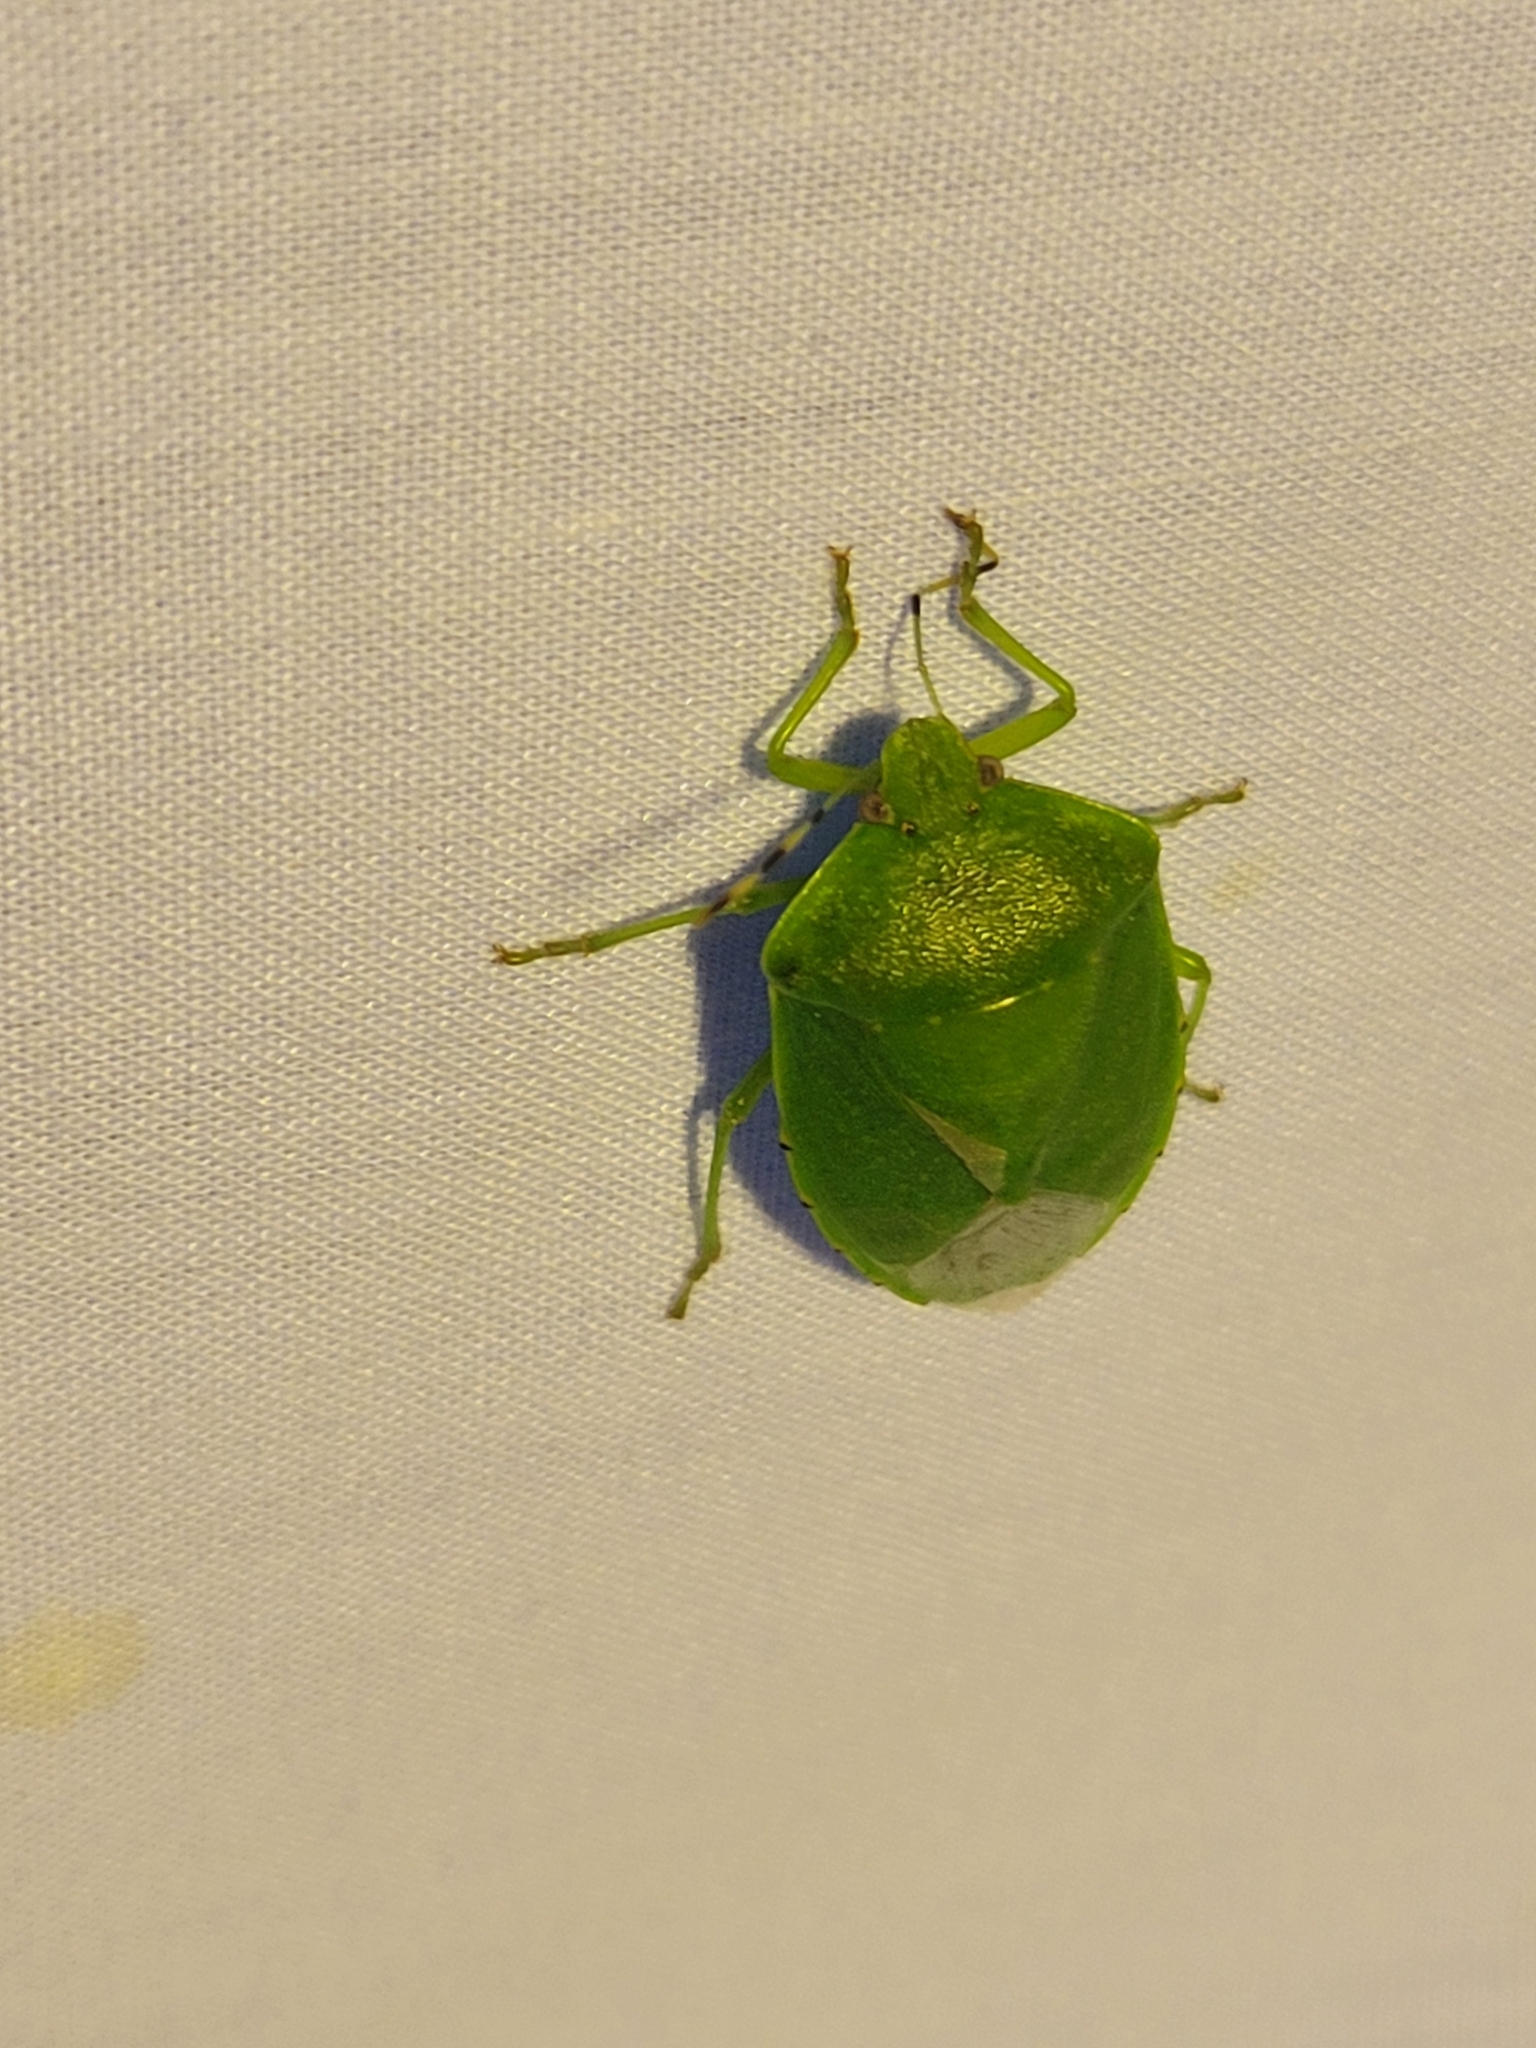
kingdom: Animalia
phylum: Arthropoda
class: Insecta
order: Hemiptera
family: Pentatomidae
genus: Chinavia
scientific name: Chinavia hilaris
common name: Green stink bug
